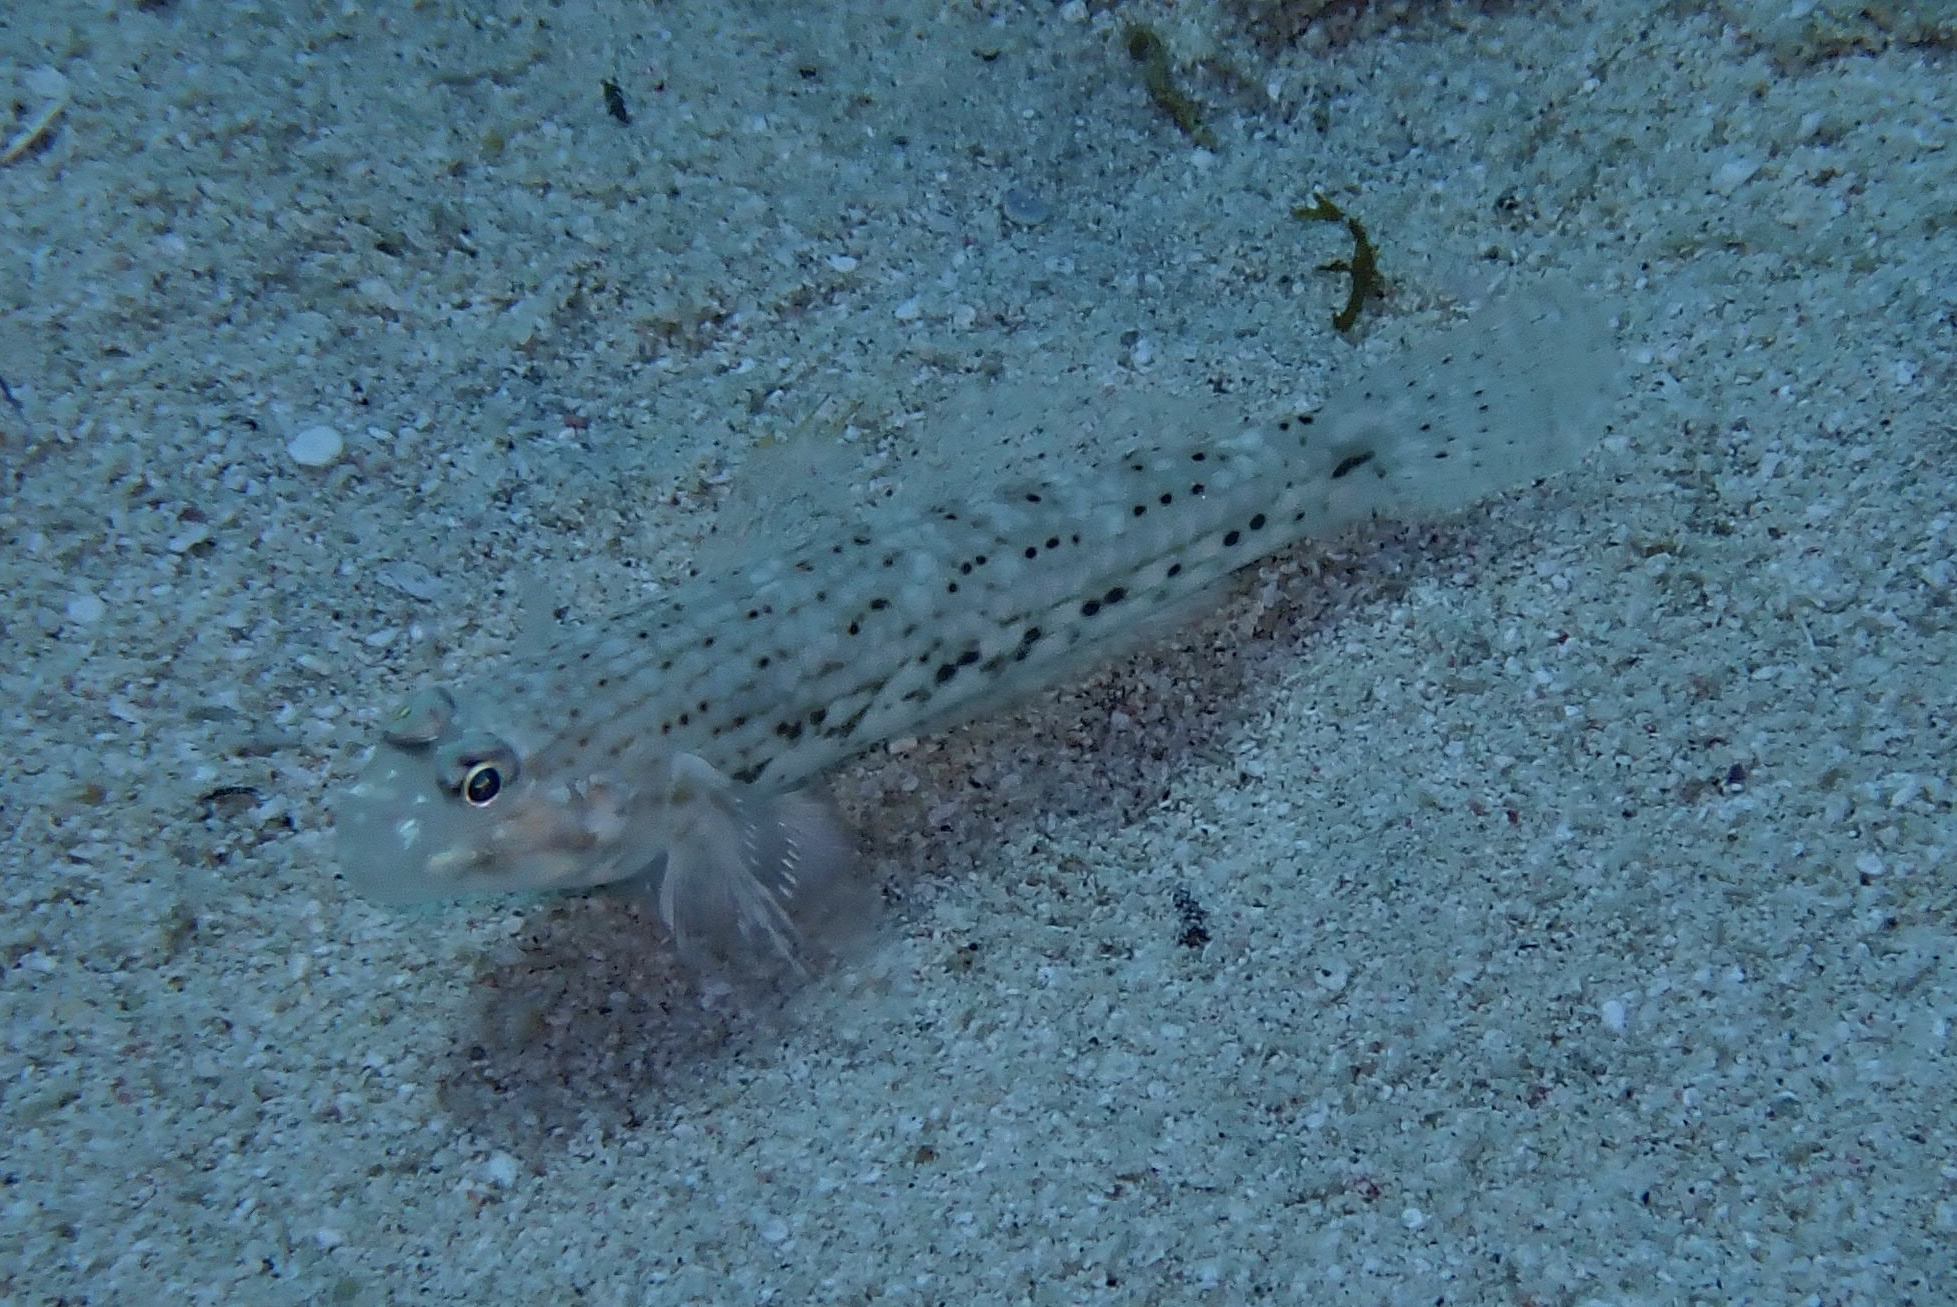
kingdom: Animalia
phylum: Chordata
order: Perciformes
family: Gobiidae
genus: Istigobius
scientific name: Istigobius decoratus
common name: Decorated goby
